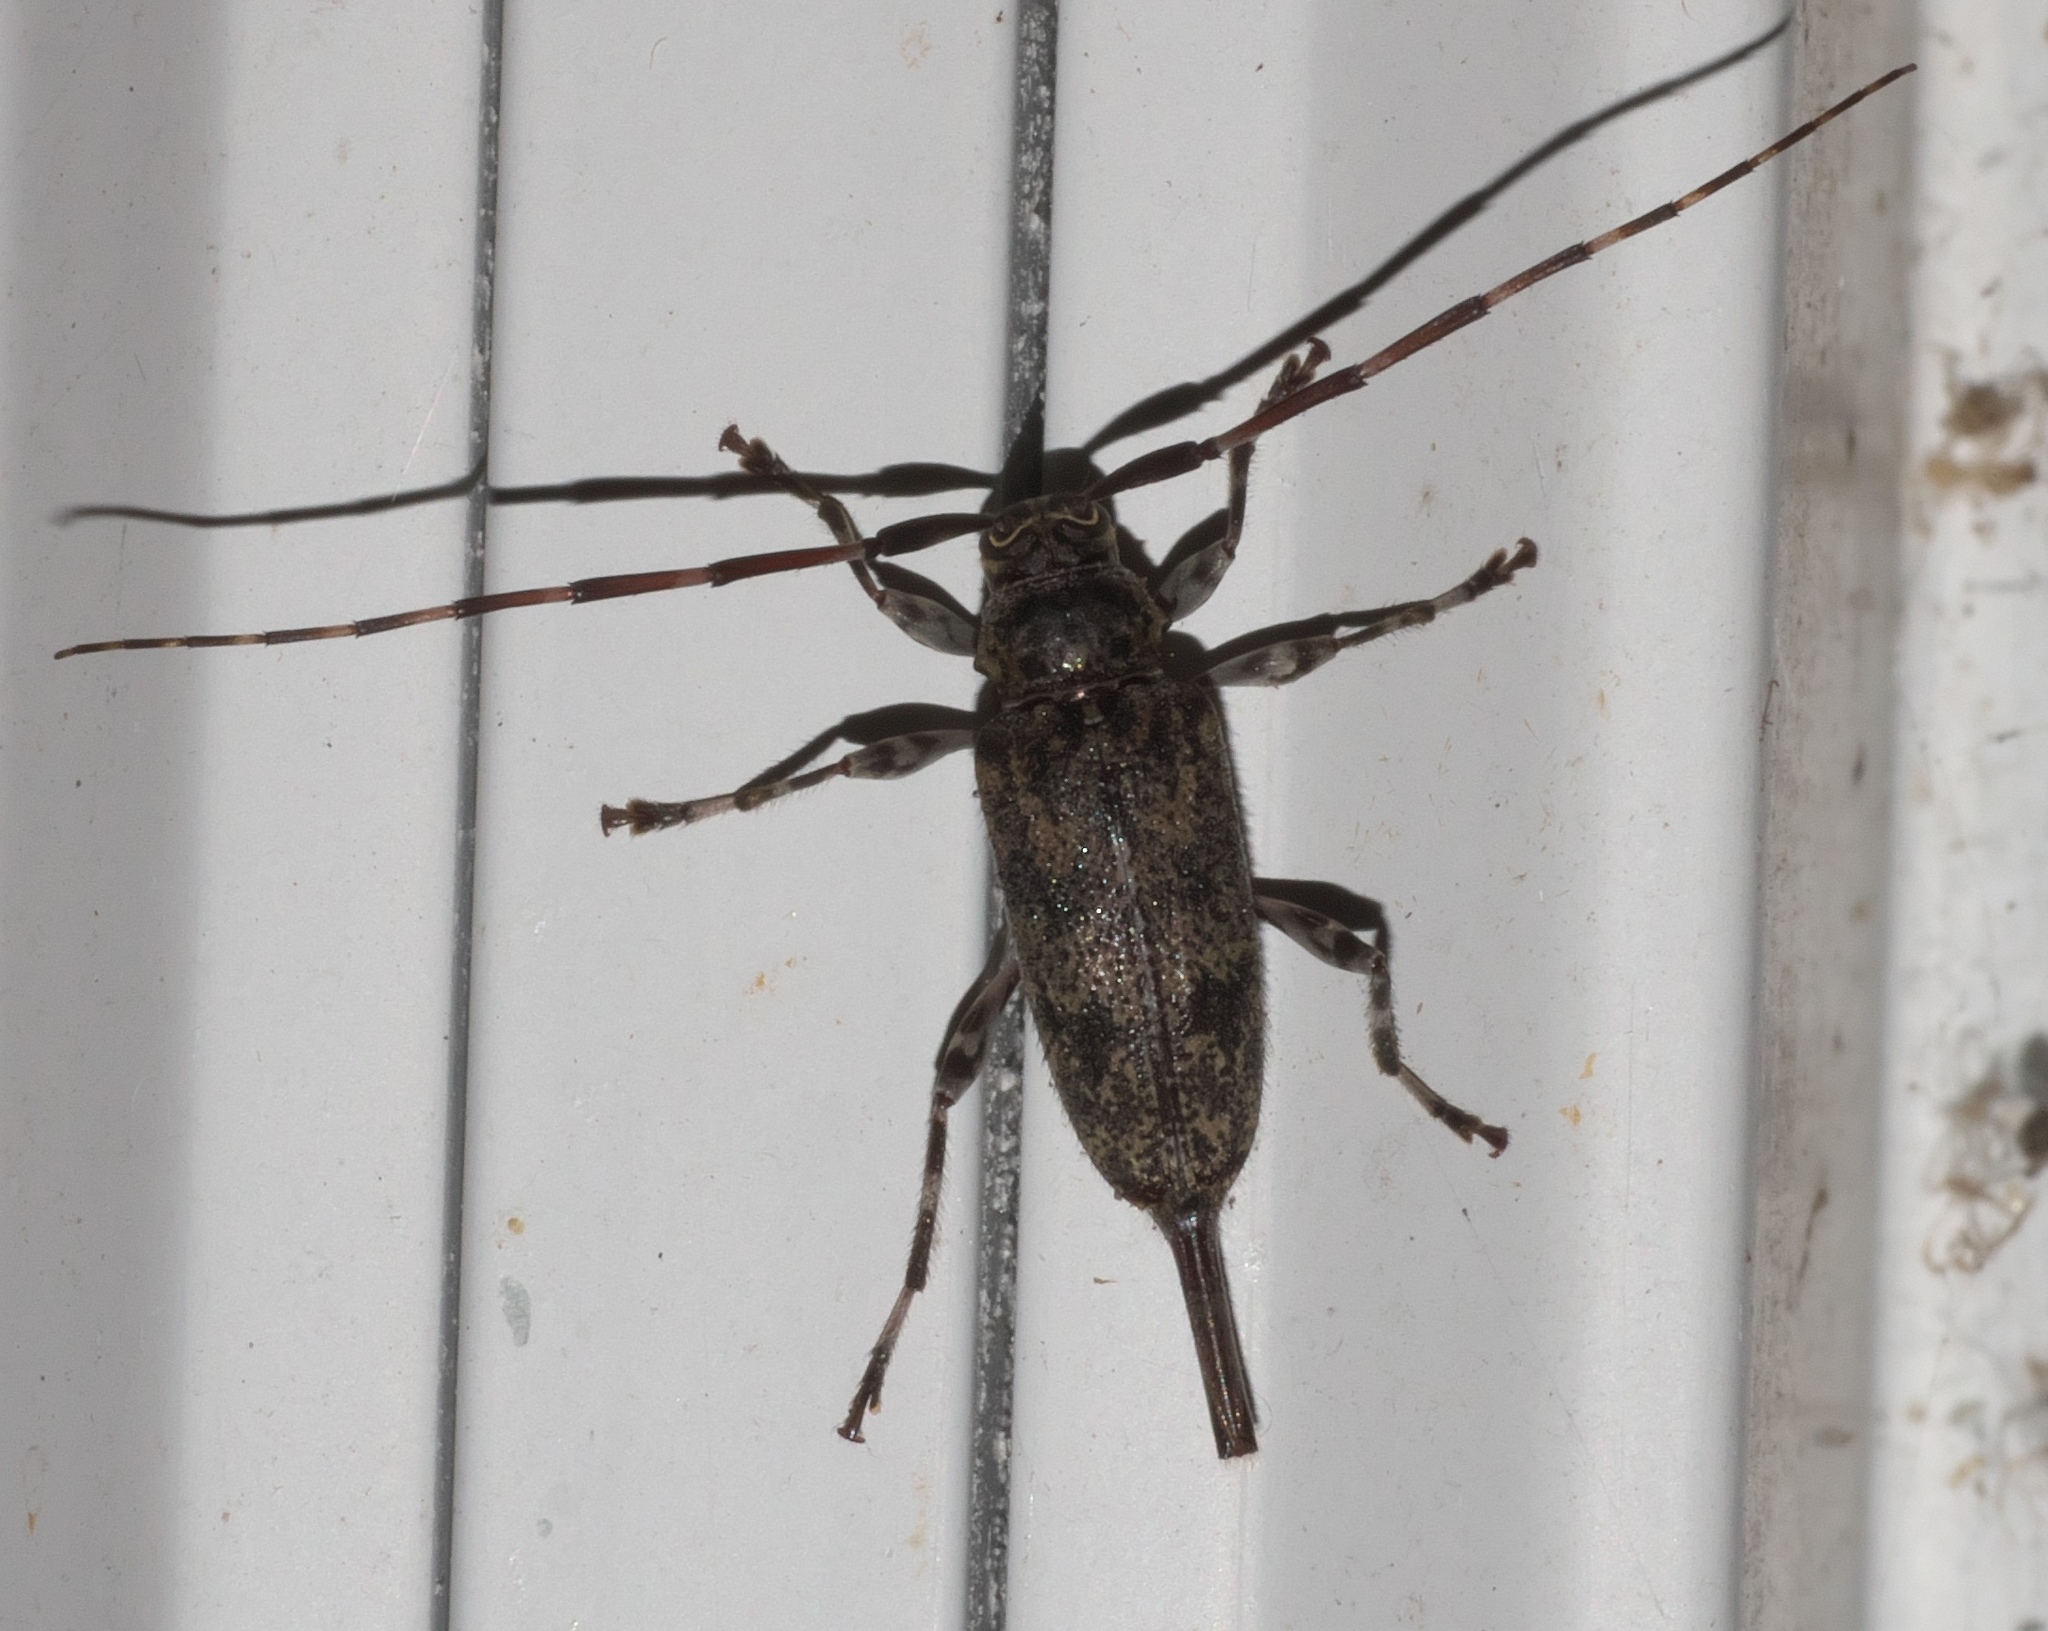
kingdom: Animalia
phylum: Arthropoda
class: Insecta
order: Coleoptera
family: Cerambycidae
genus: Graphisurus
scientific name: Graphisurus despectus
